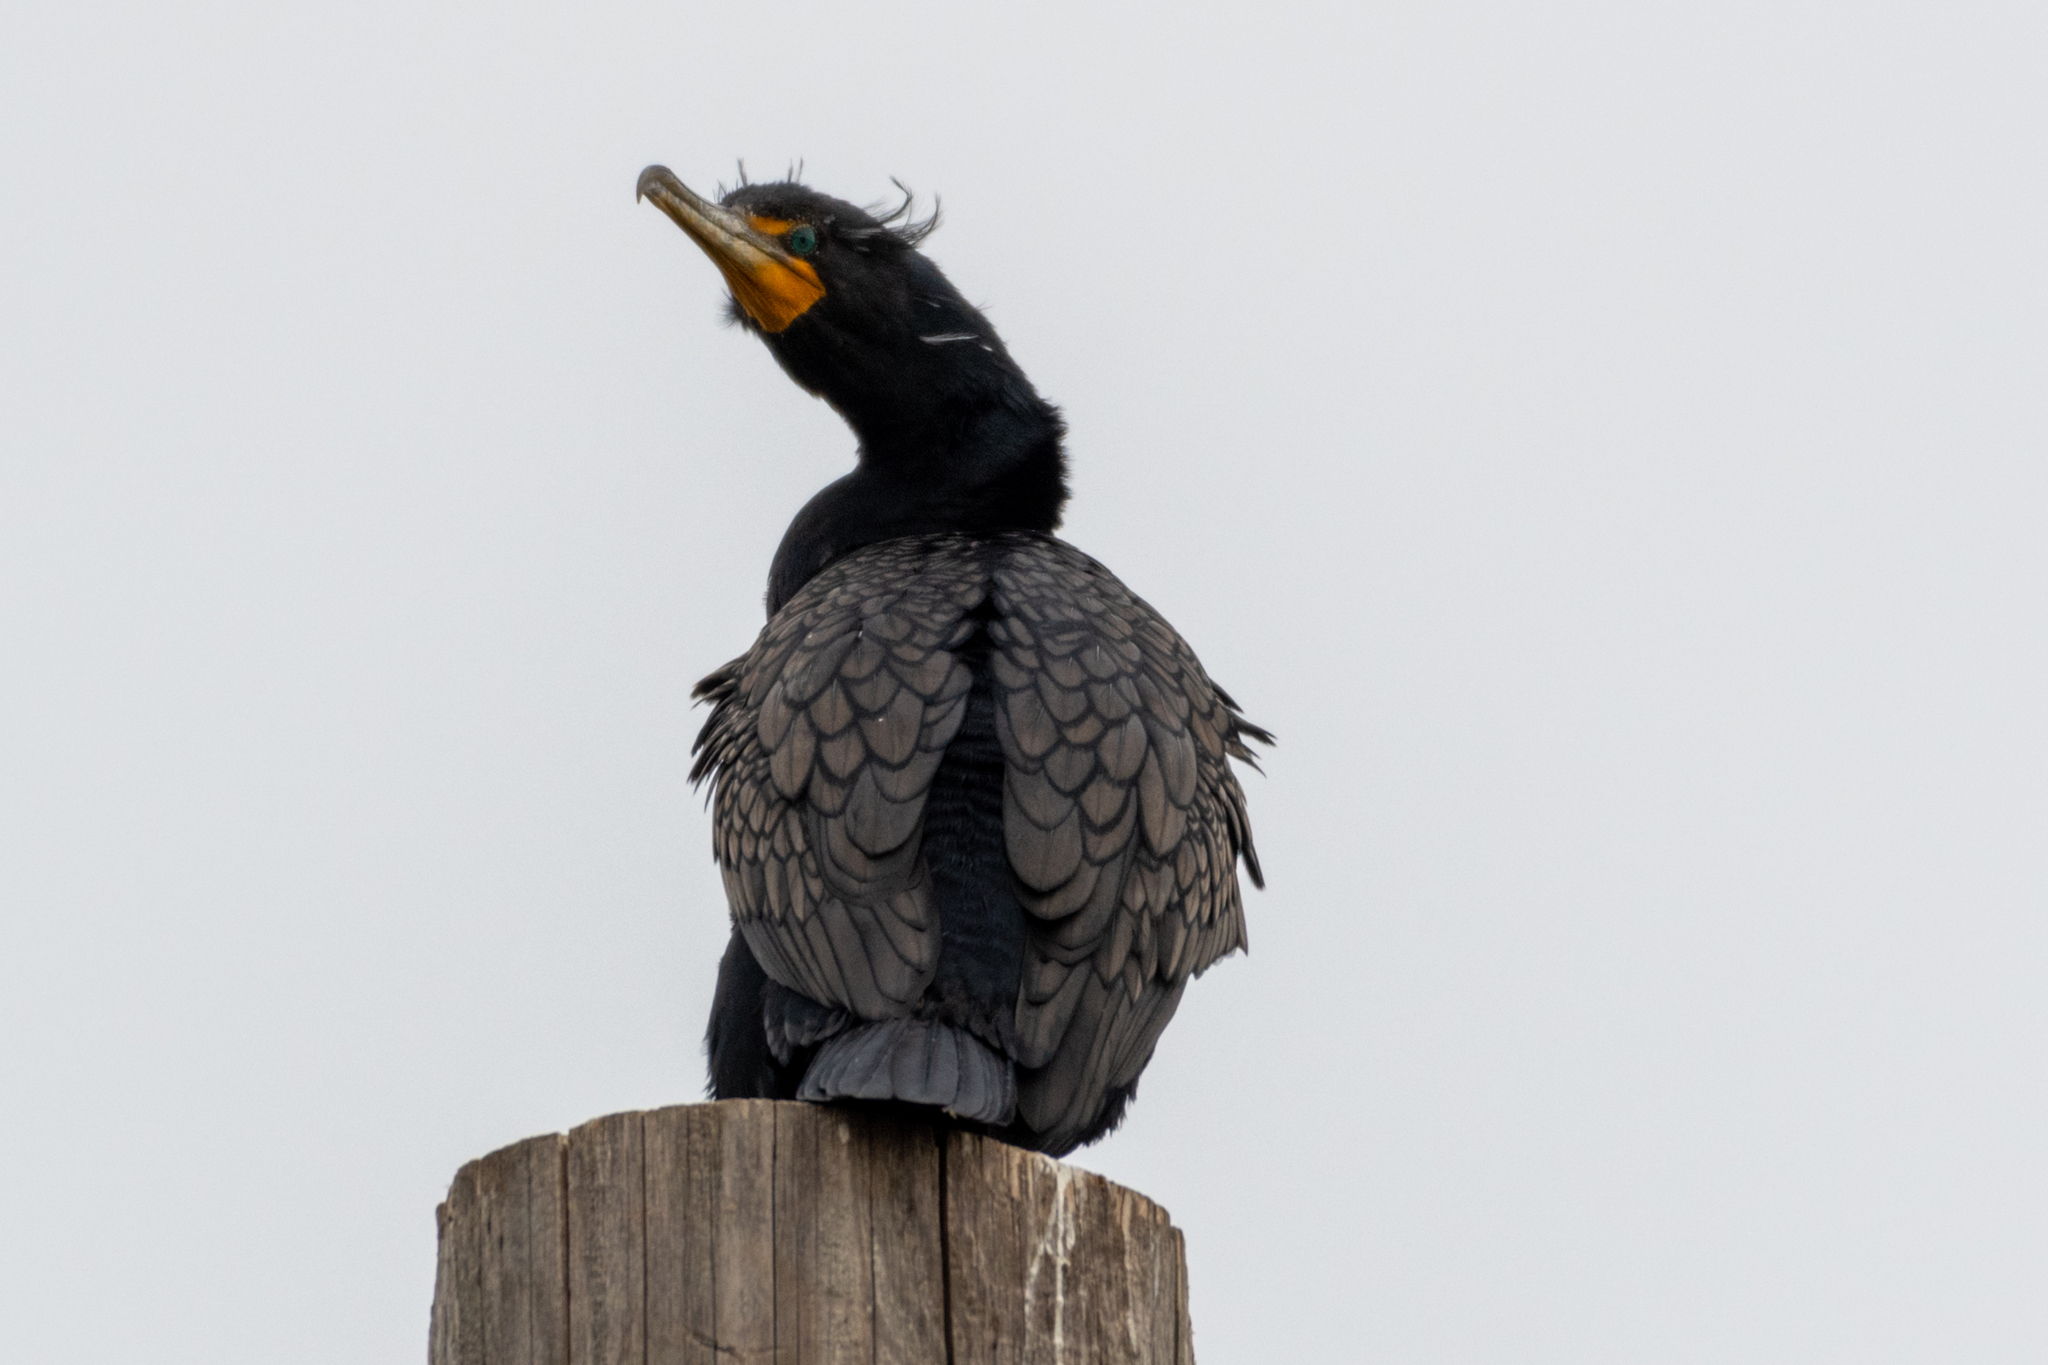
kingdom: Animalia
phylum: Chordata
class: Aves
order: Suliformes
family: Phalacrocoracidae
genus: Phalacrocorax
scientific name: Phalacrocorax auritus
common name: Double-crested cormorant
